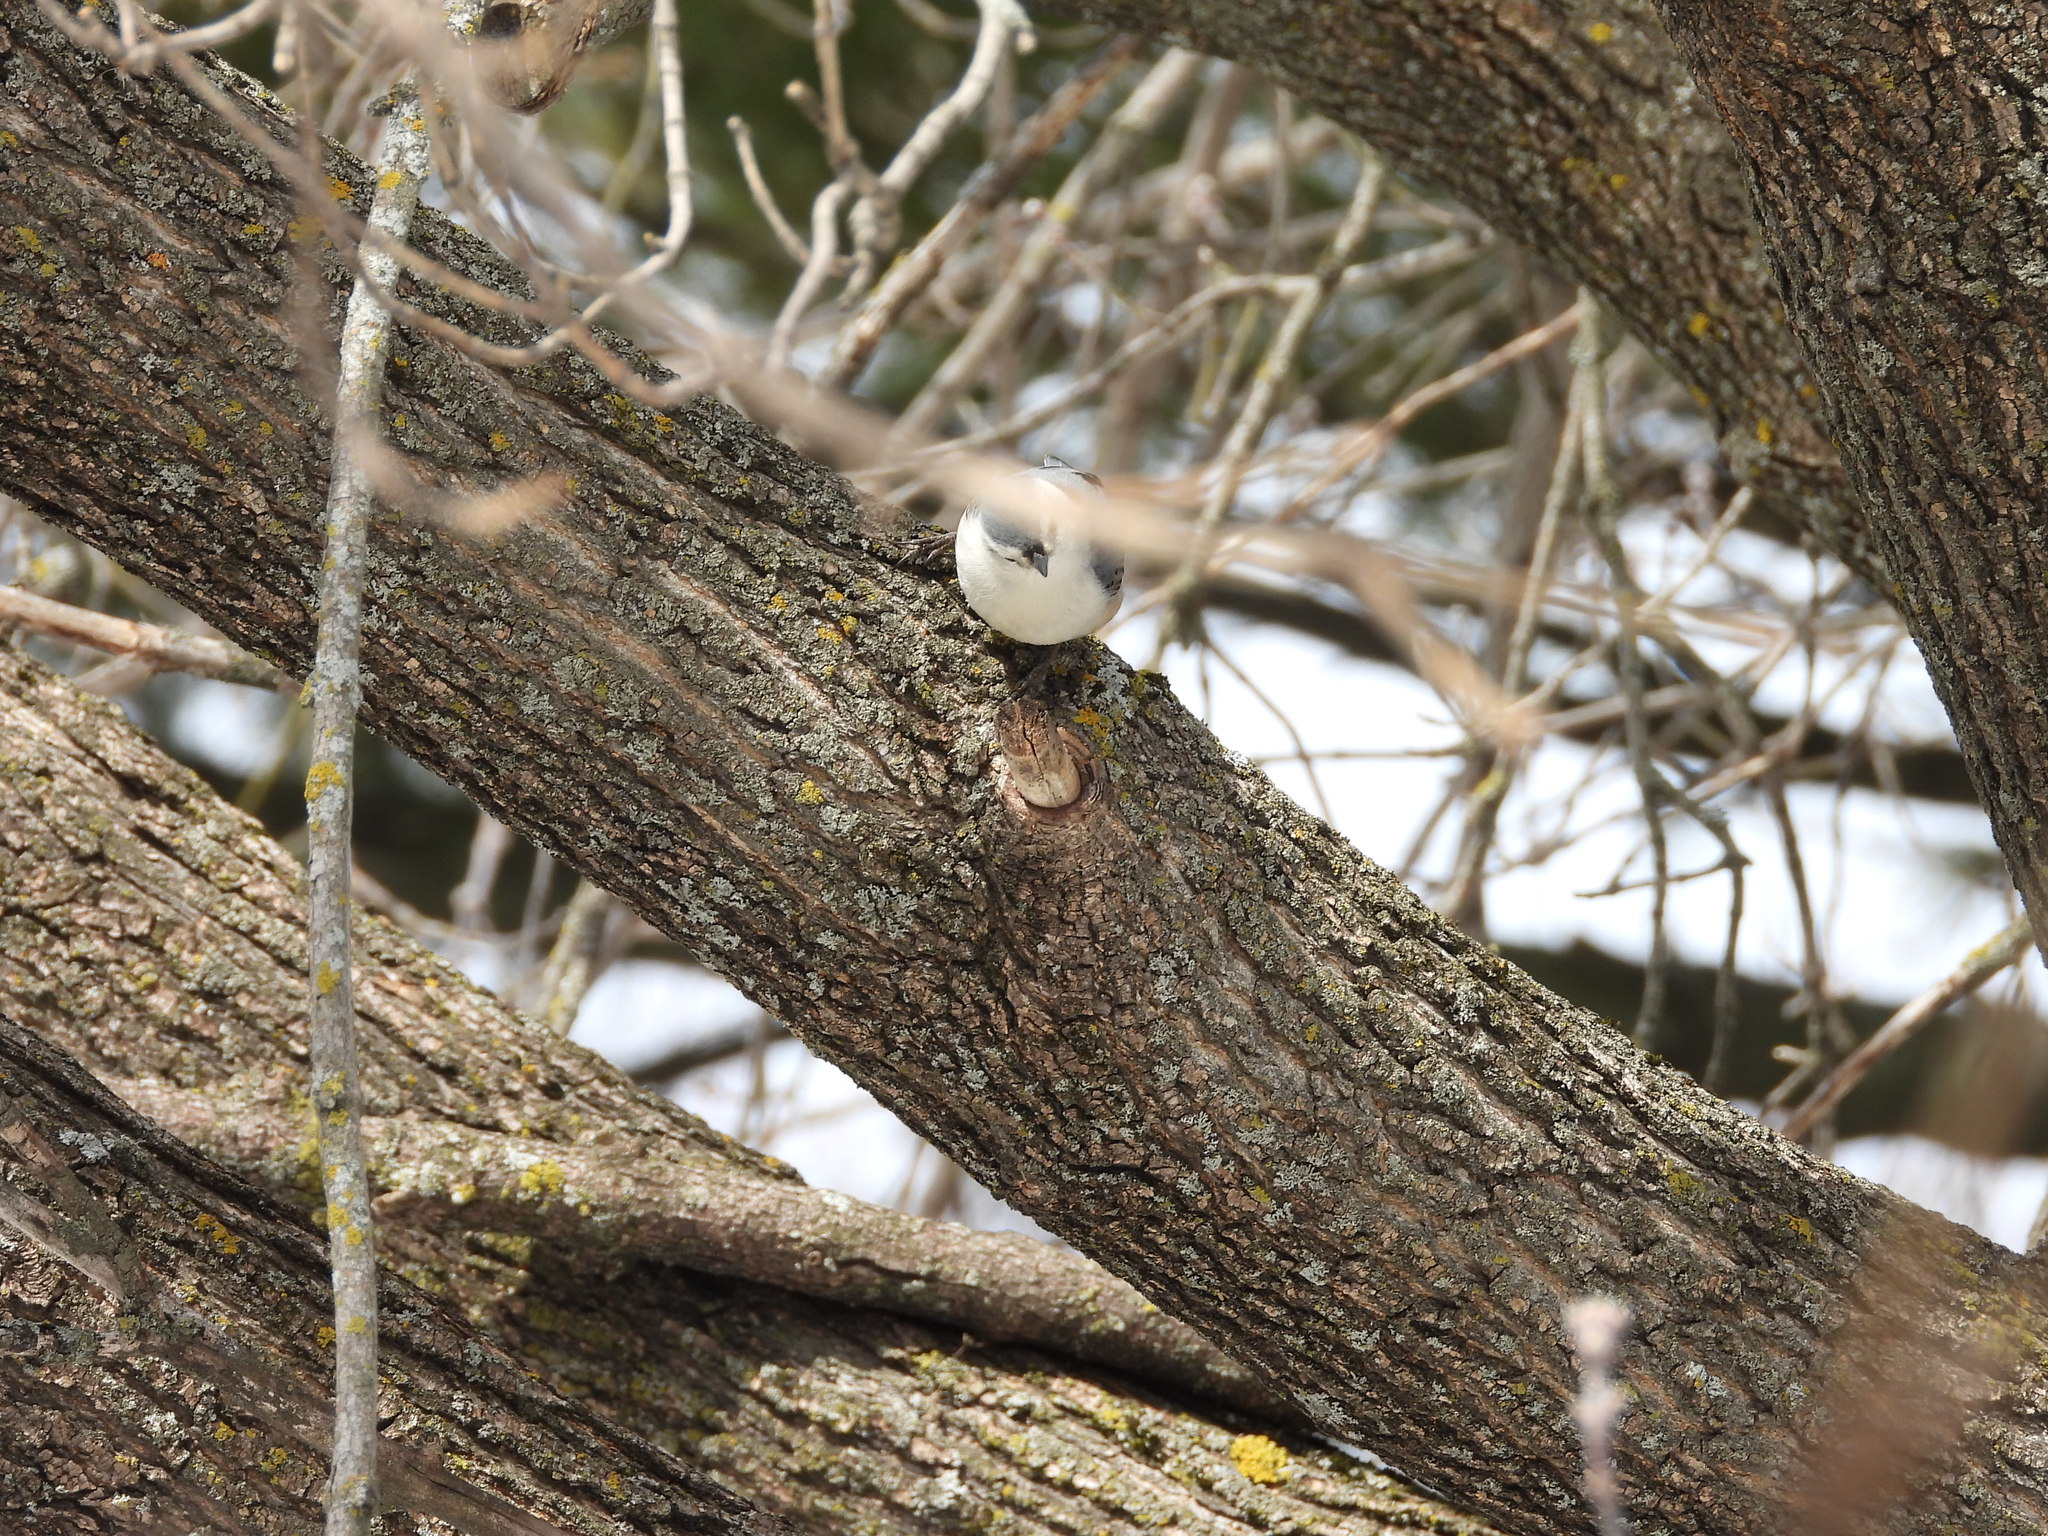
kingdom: Animalia
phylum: Chordata
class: Aves
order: Passeriformes
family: Sittidae
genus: Sitta
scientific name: Sitta carolinensis
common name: White-breasted nuthatch
